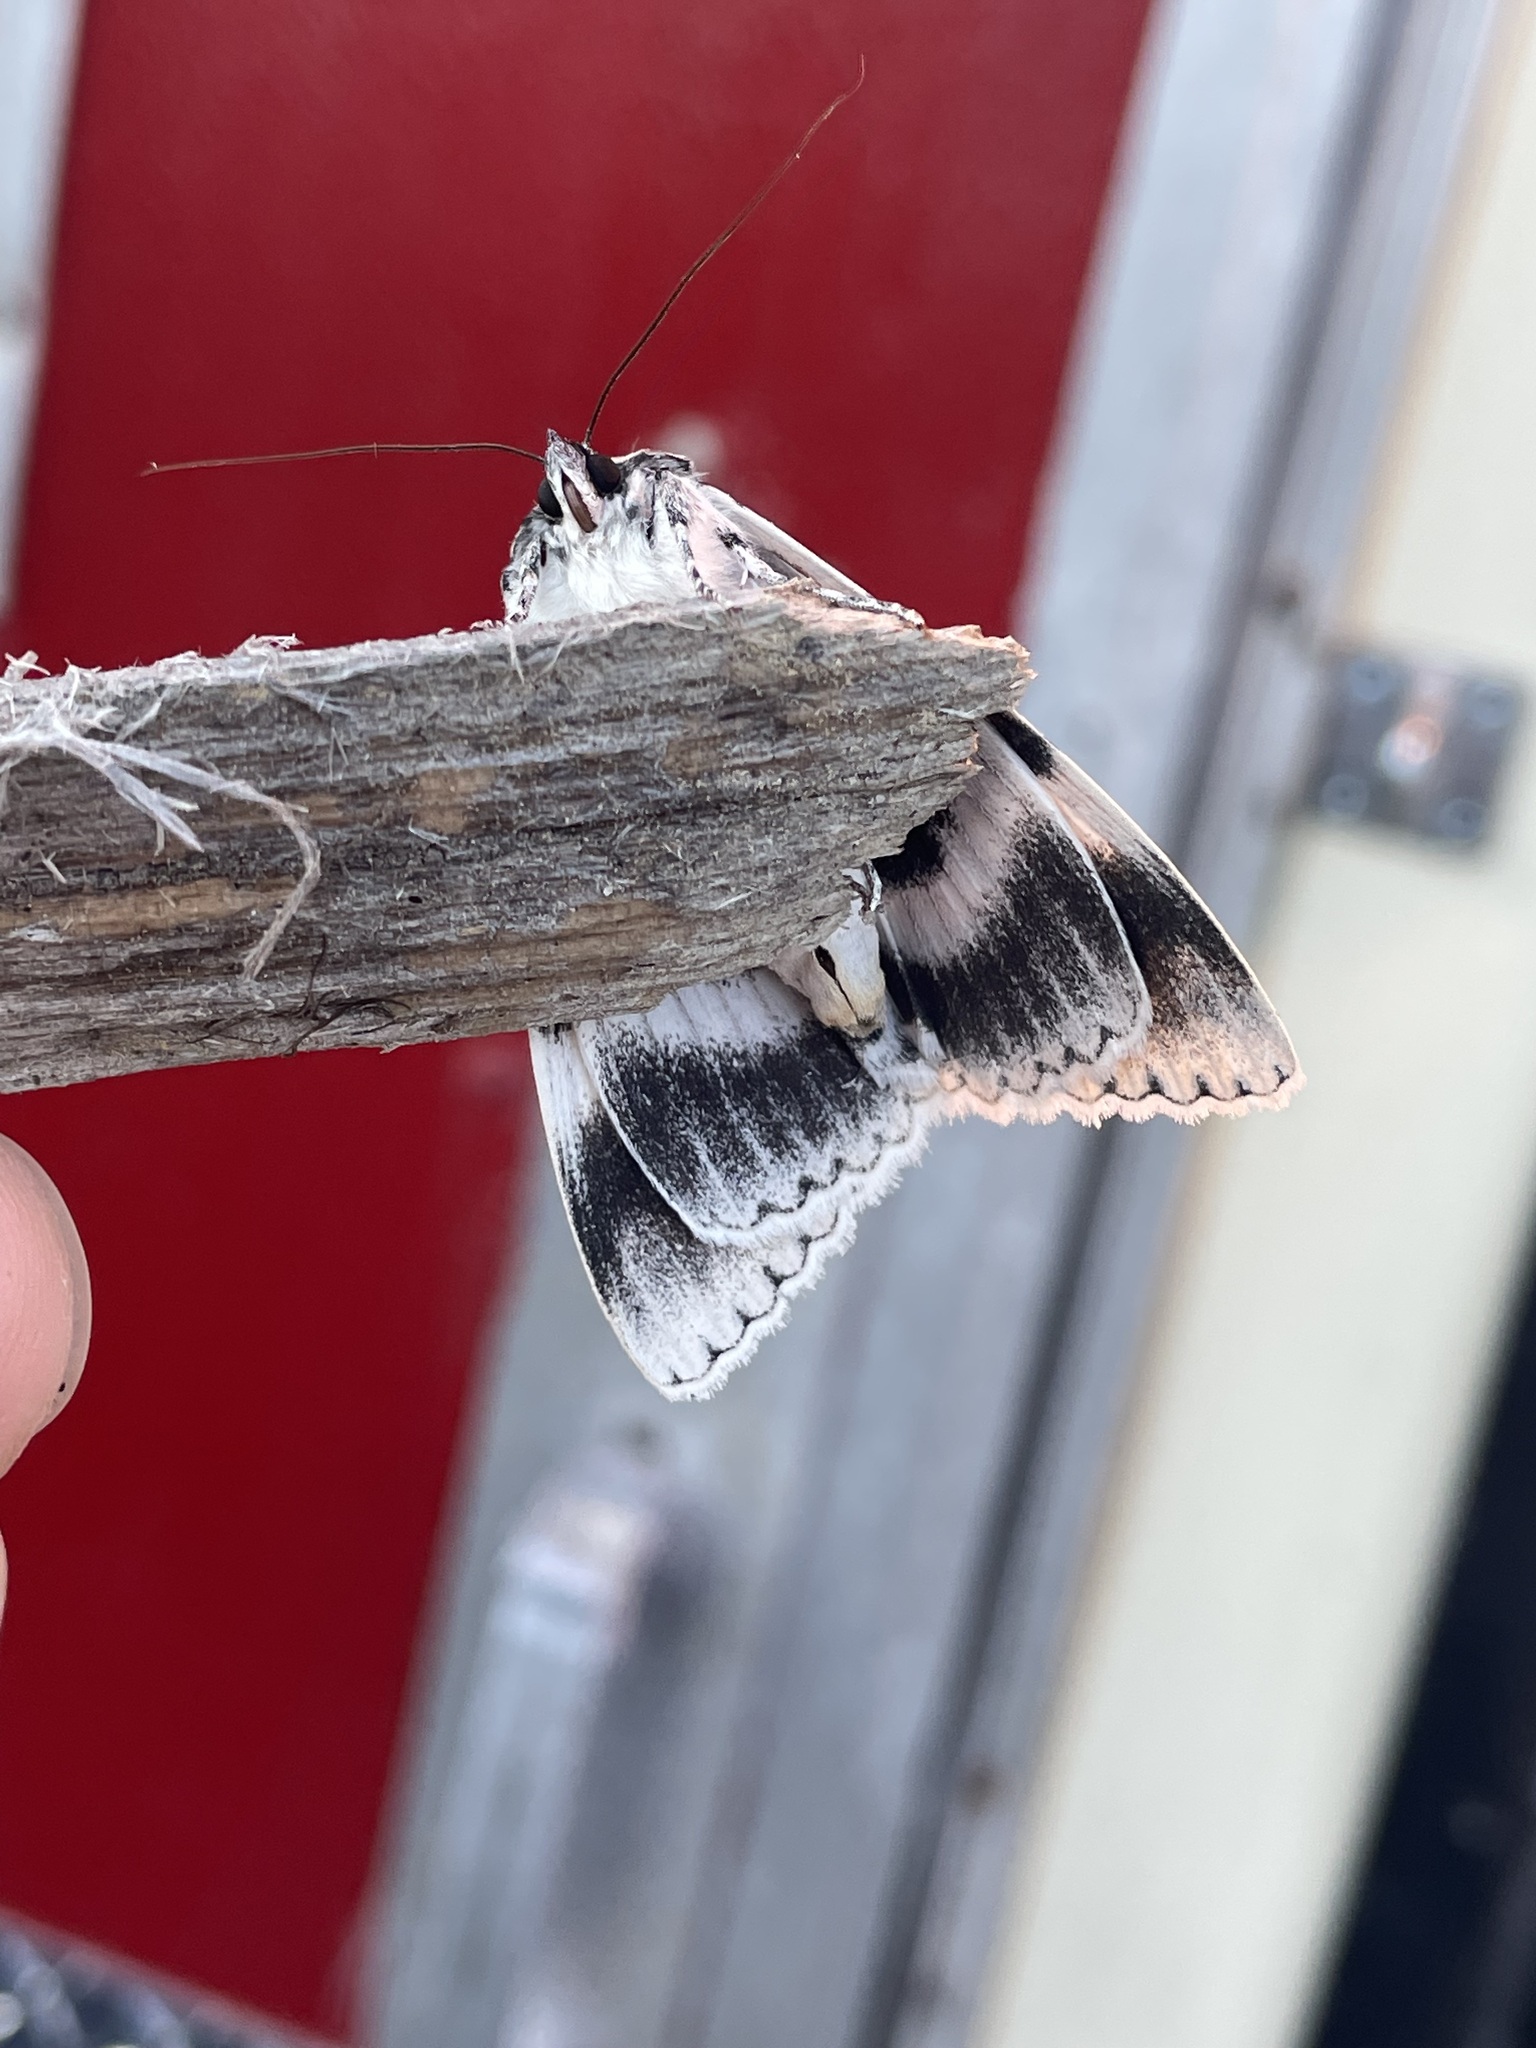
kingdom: Animalia
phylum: Arthropoda
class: Insecta
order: Lepidoptera
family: Erebidae
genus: Catocala
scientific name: Catocala relicta
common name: White underwing
